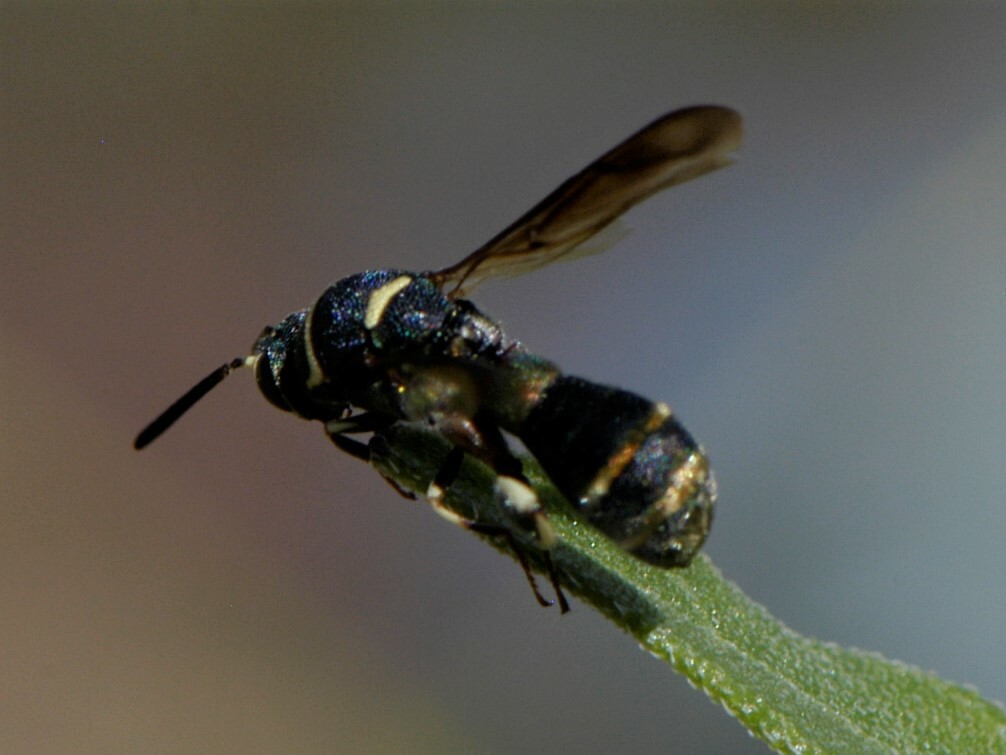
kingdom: Animalia
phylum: Arthropoda
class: Insecta
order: Hymenoptera
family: Leucospidae
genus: Leucospis
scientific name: Leucospis birkmani
